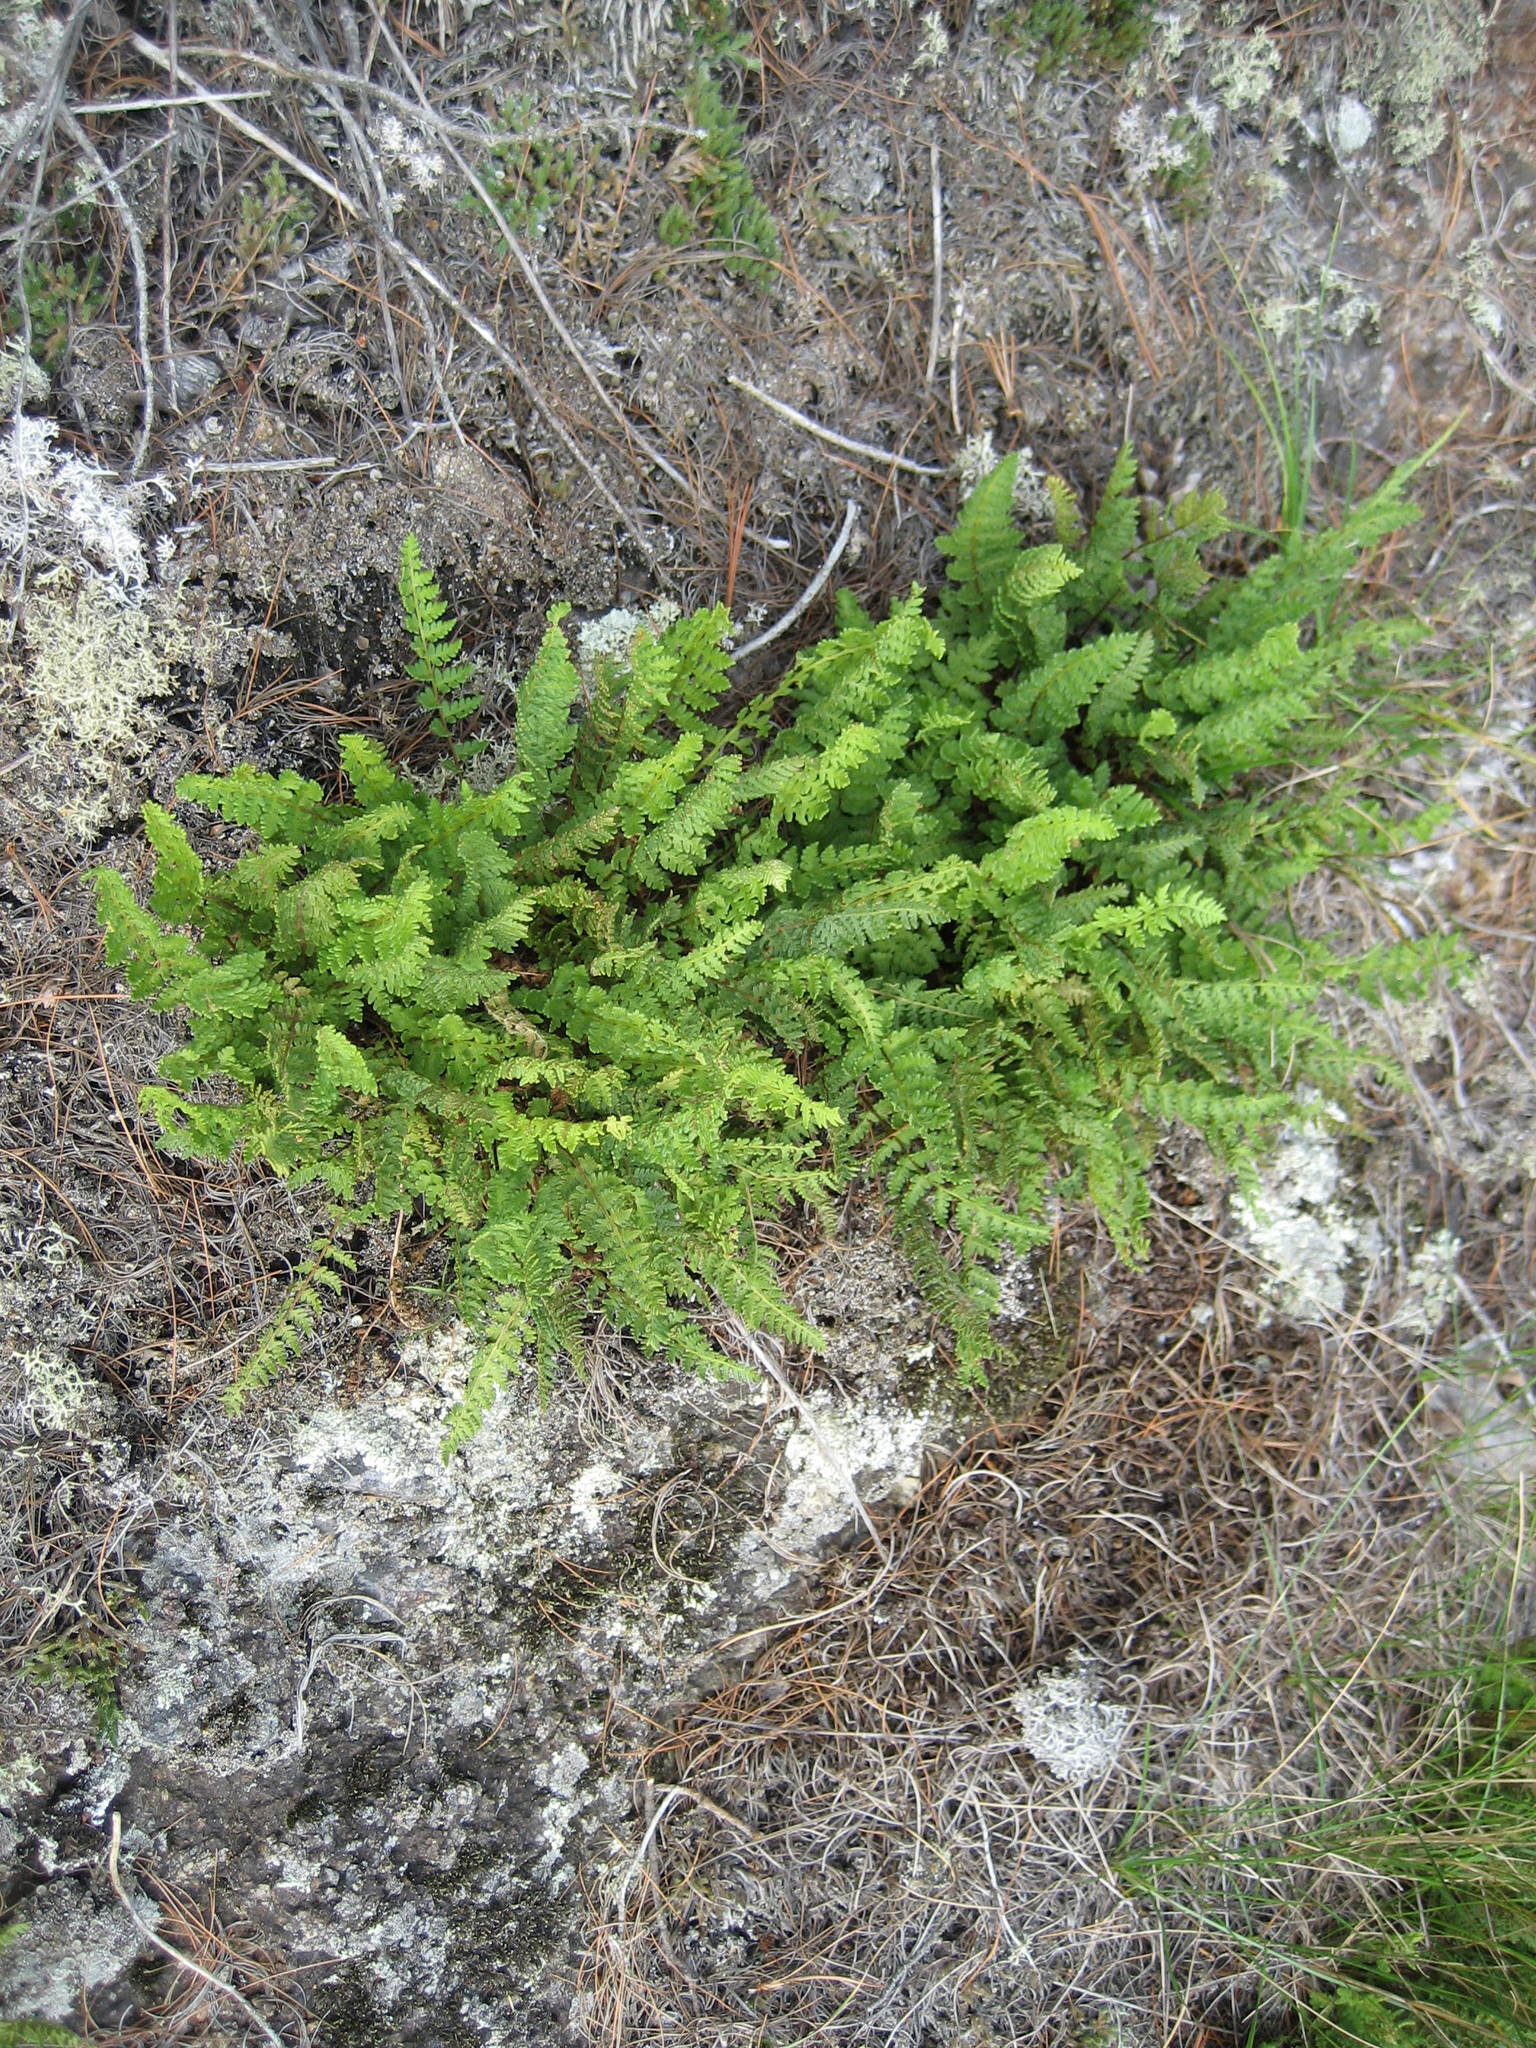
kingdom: Plantae
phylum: Tracheophyta
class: Polypodiopsida
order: Polypodiales
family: Woodsiaceae
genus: Woodsia
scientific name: Woodsia ilvensis
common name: Fragrant woodsia
